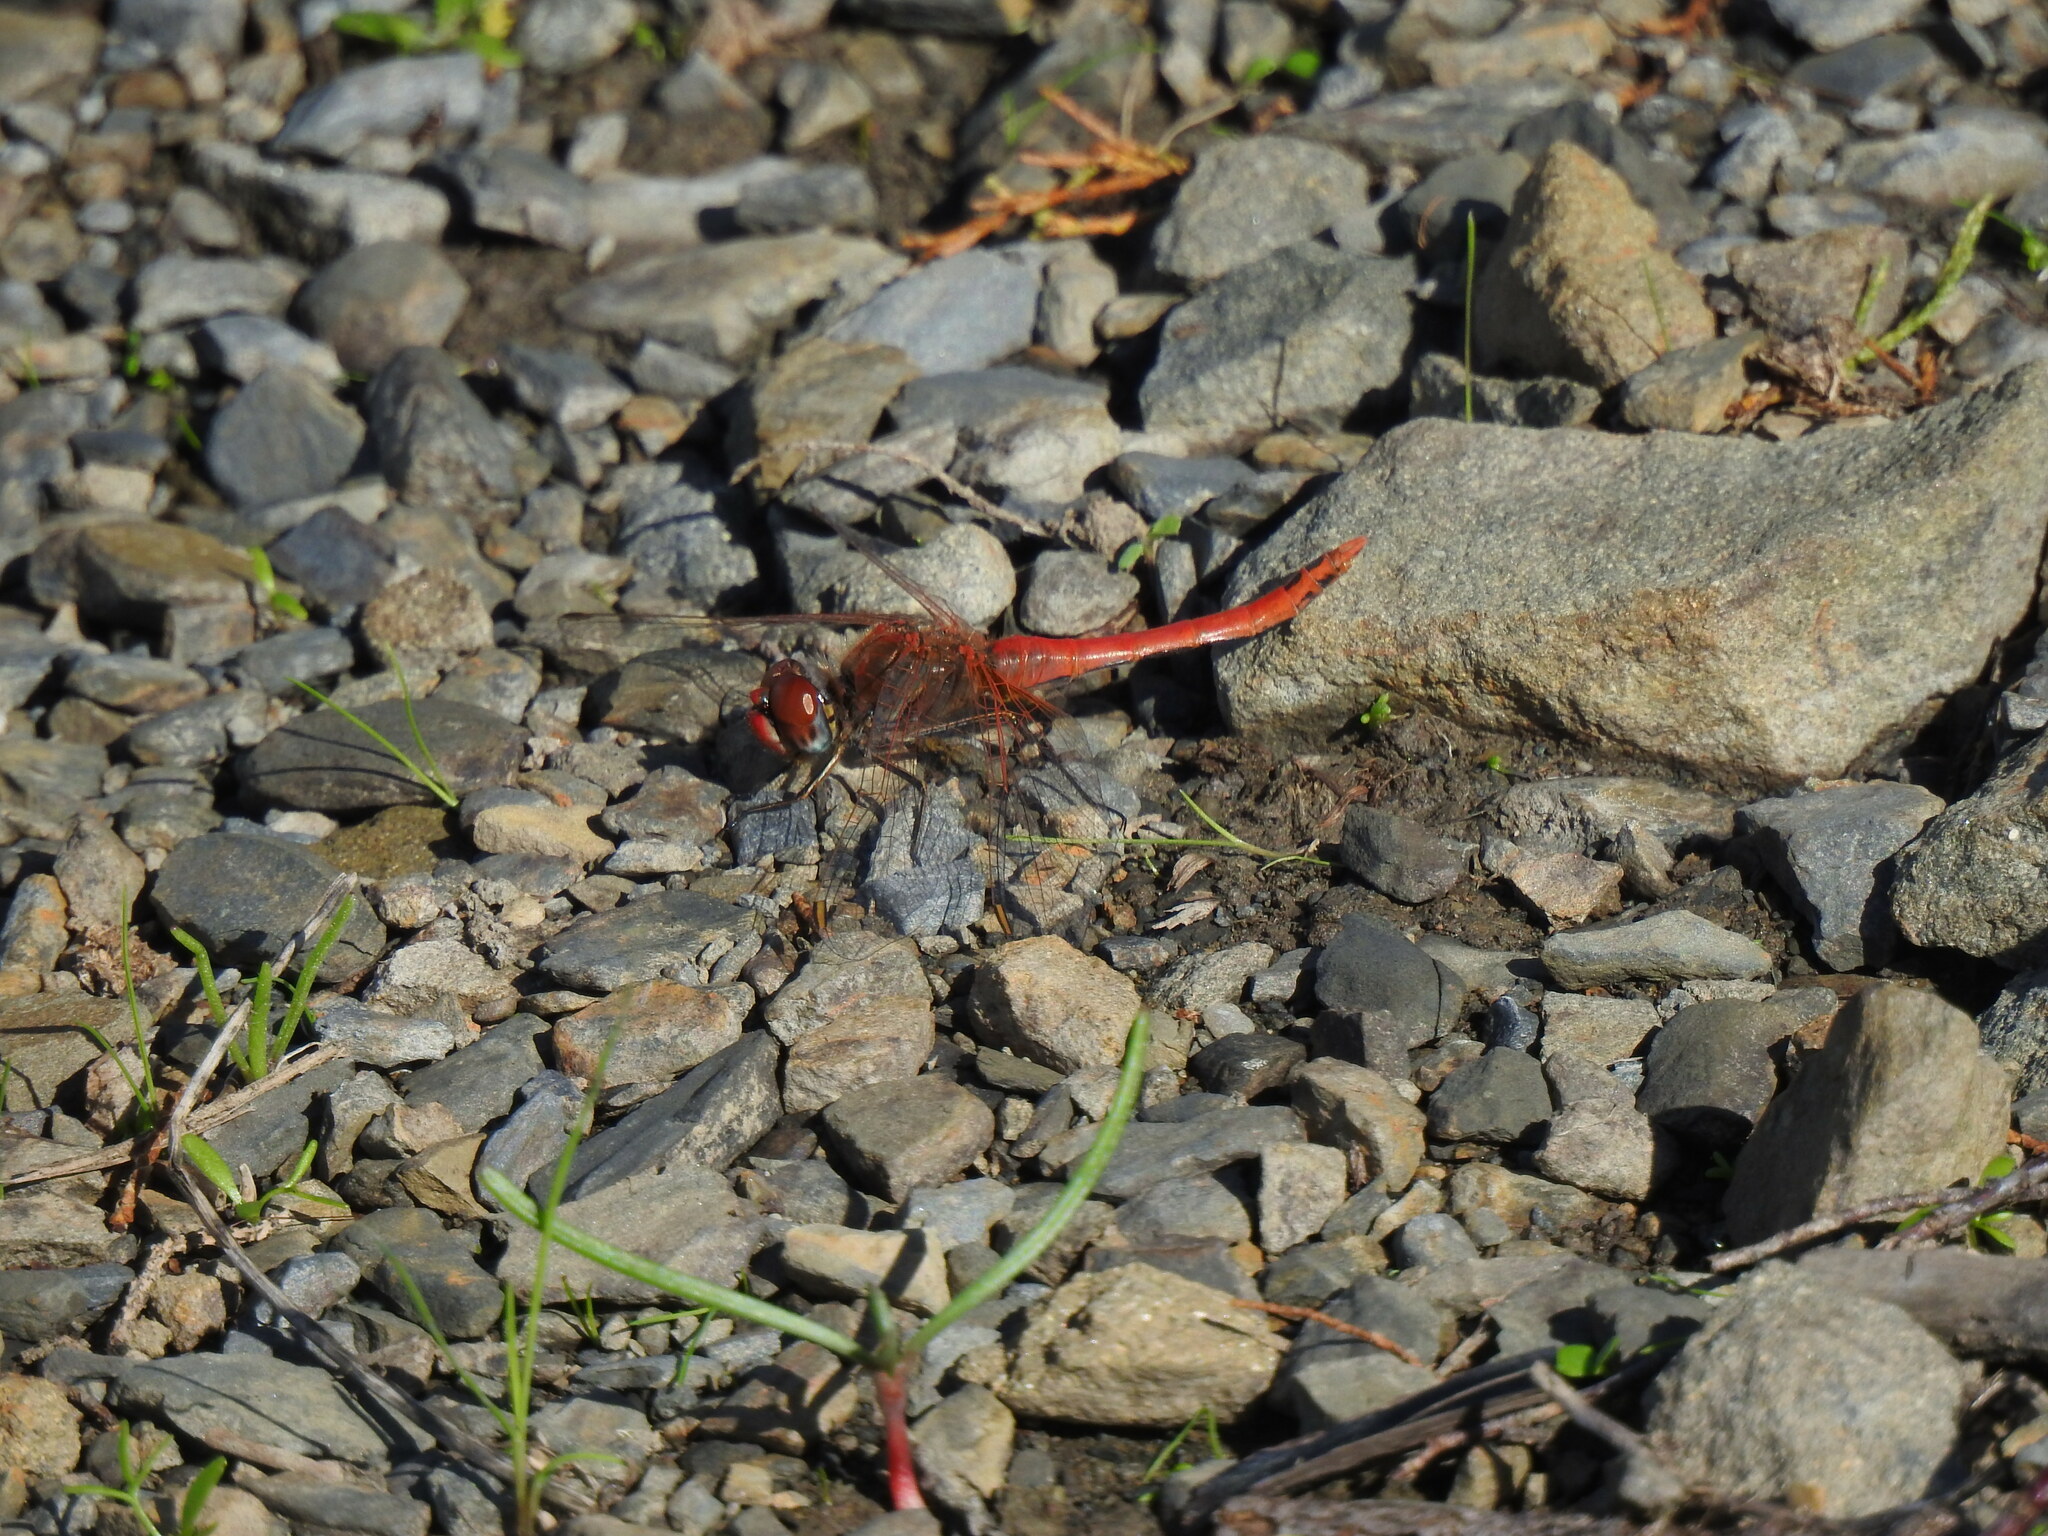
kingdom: Animalia
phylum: Arthropoda
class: Insecta
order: Odonata
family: Libellulidae
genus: Sympetrum
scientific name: Sympetrum fonscolombii
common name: Red-veined darter
